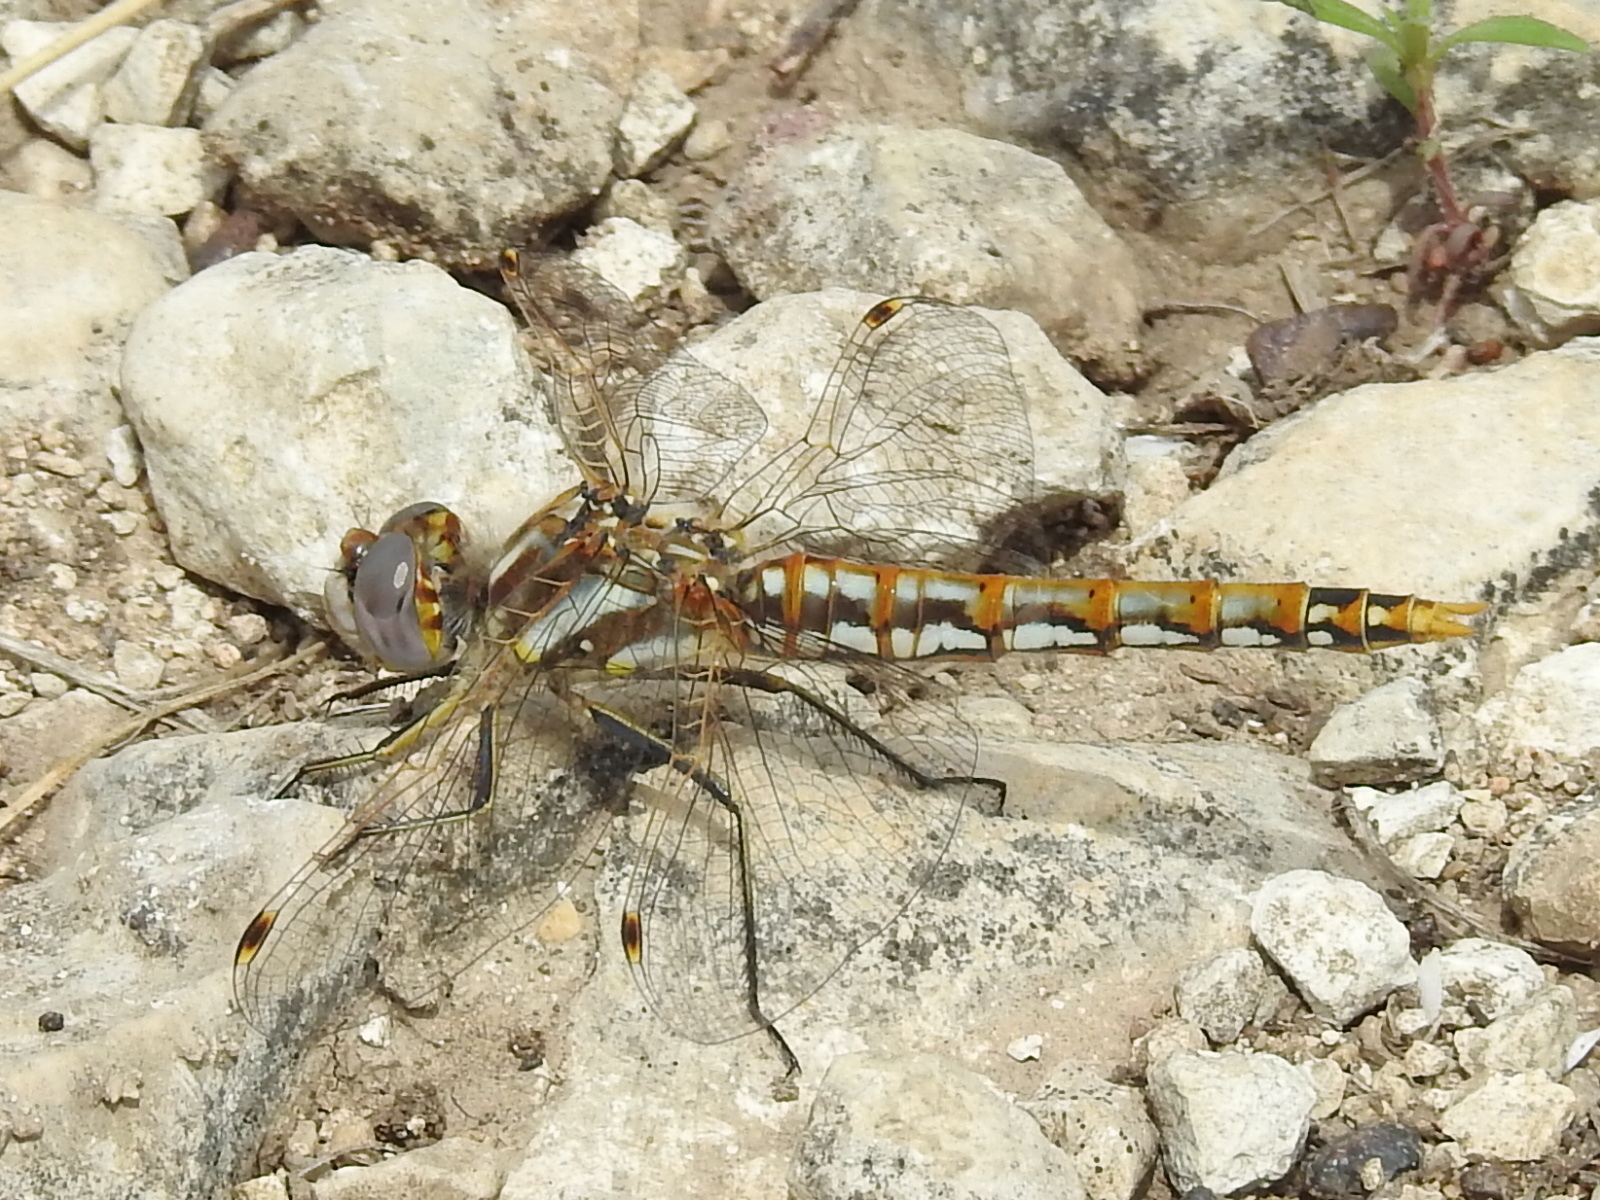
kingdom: Animalia
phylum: Arthropoda
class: Insecta
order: Odonata
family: Libellulidae
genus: Sympetrum
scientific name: Sympetrum corruptum
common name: Variegated meadowhawk
